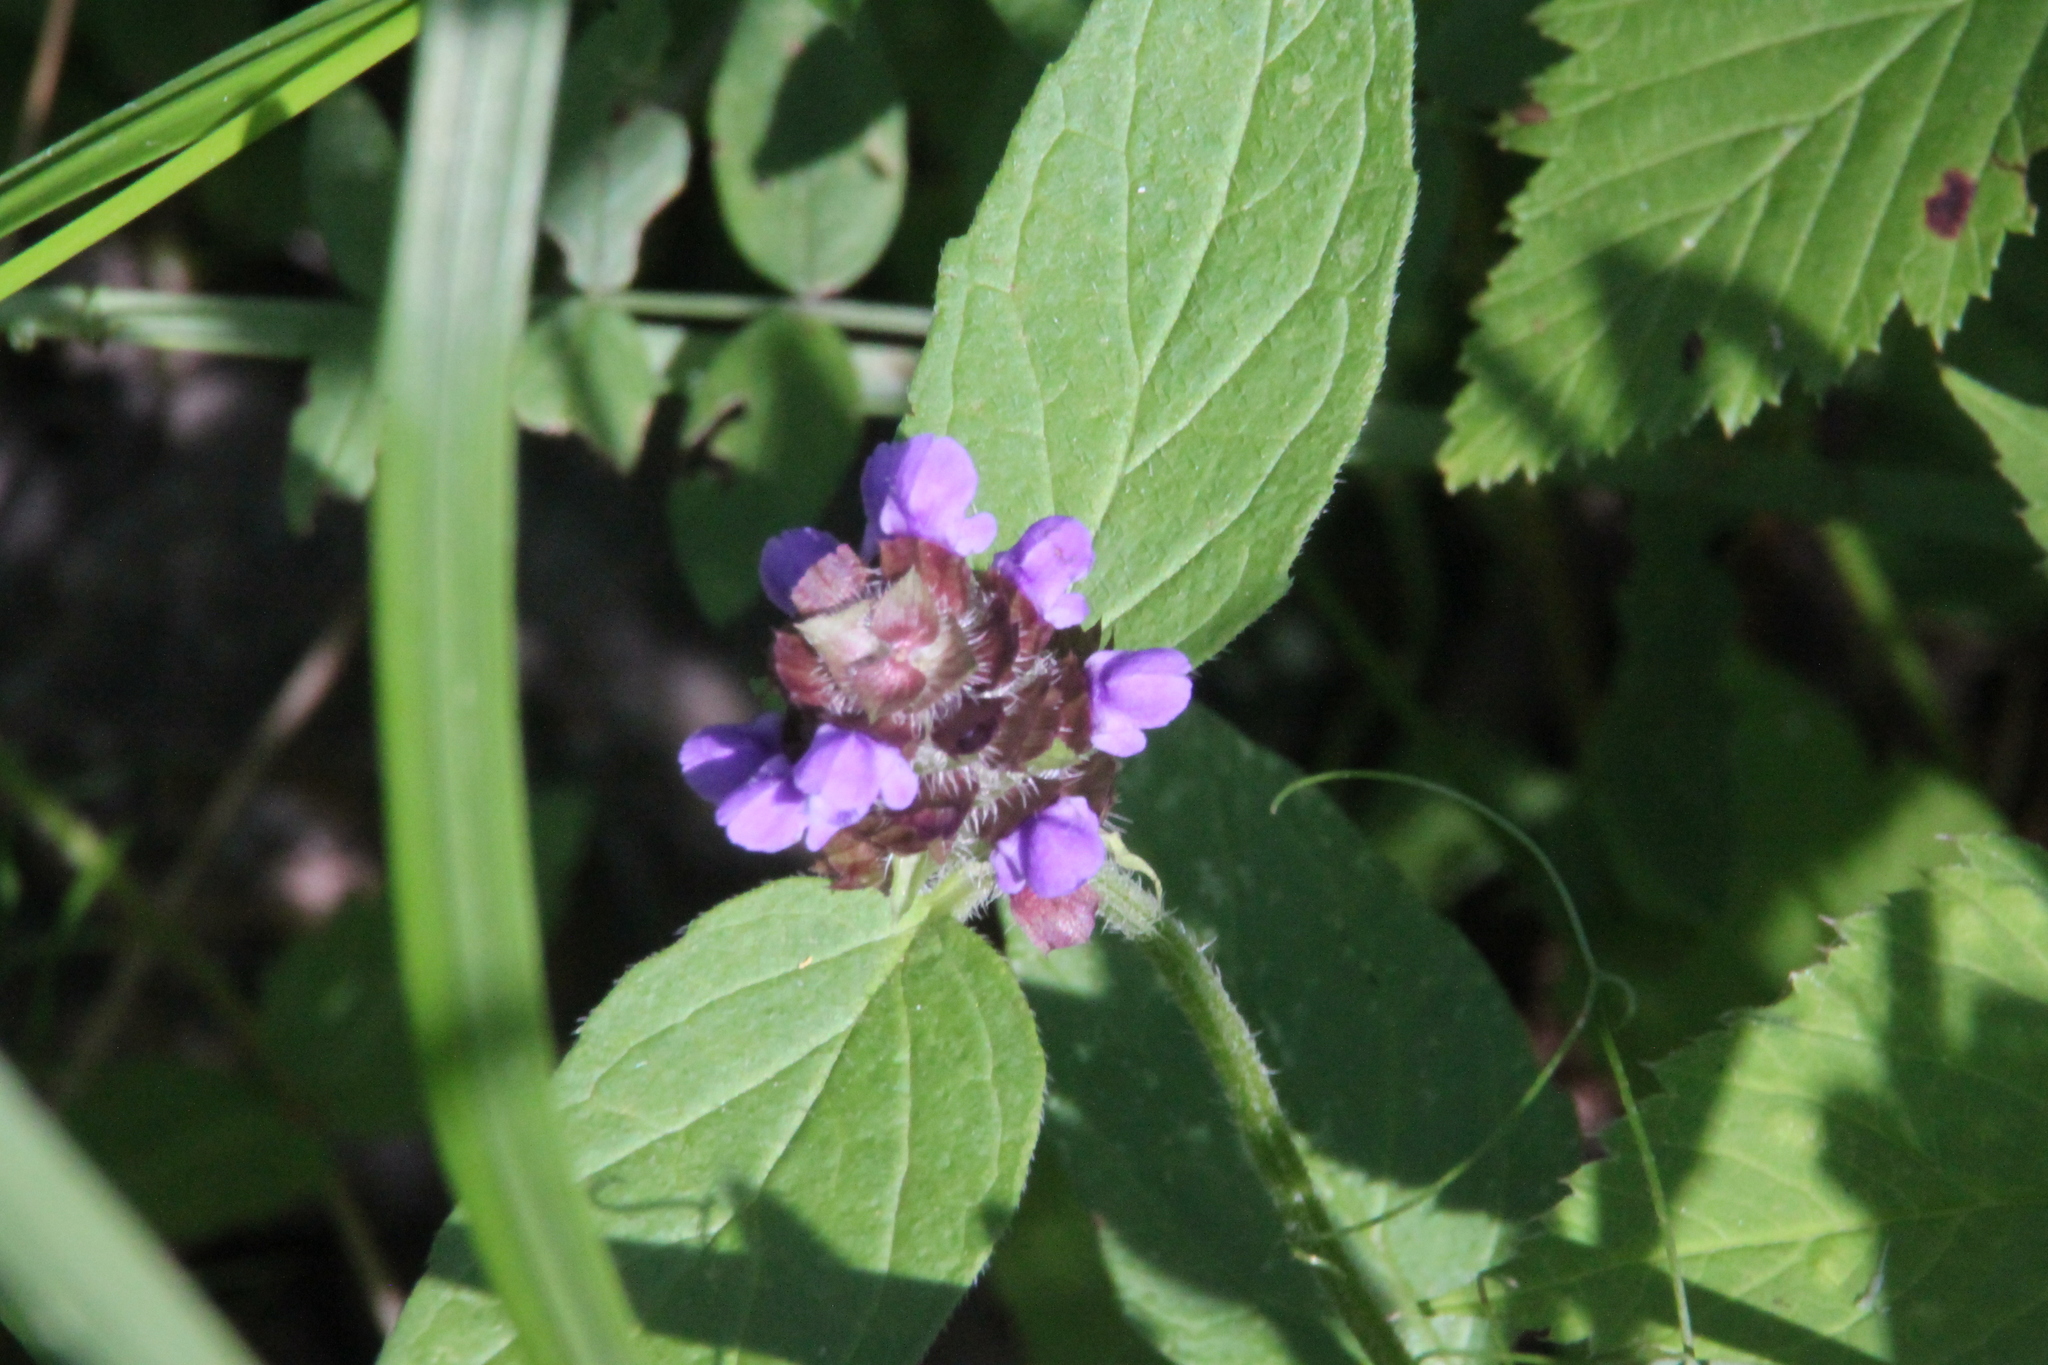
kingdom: Plantae
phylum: Tracheophyta
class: Magnoliopsida
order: Lamiales
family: Lamiaceae
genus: Prunella
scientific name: Prunella vulgaris
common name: Heal-all
